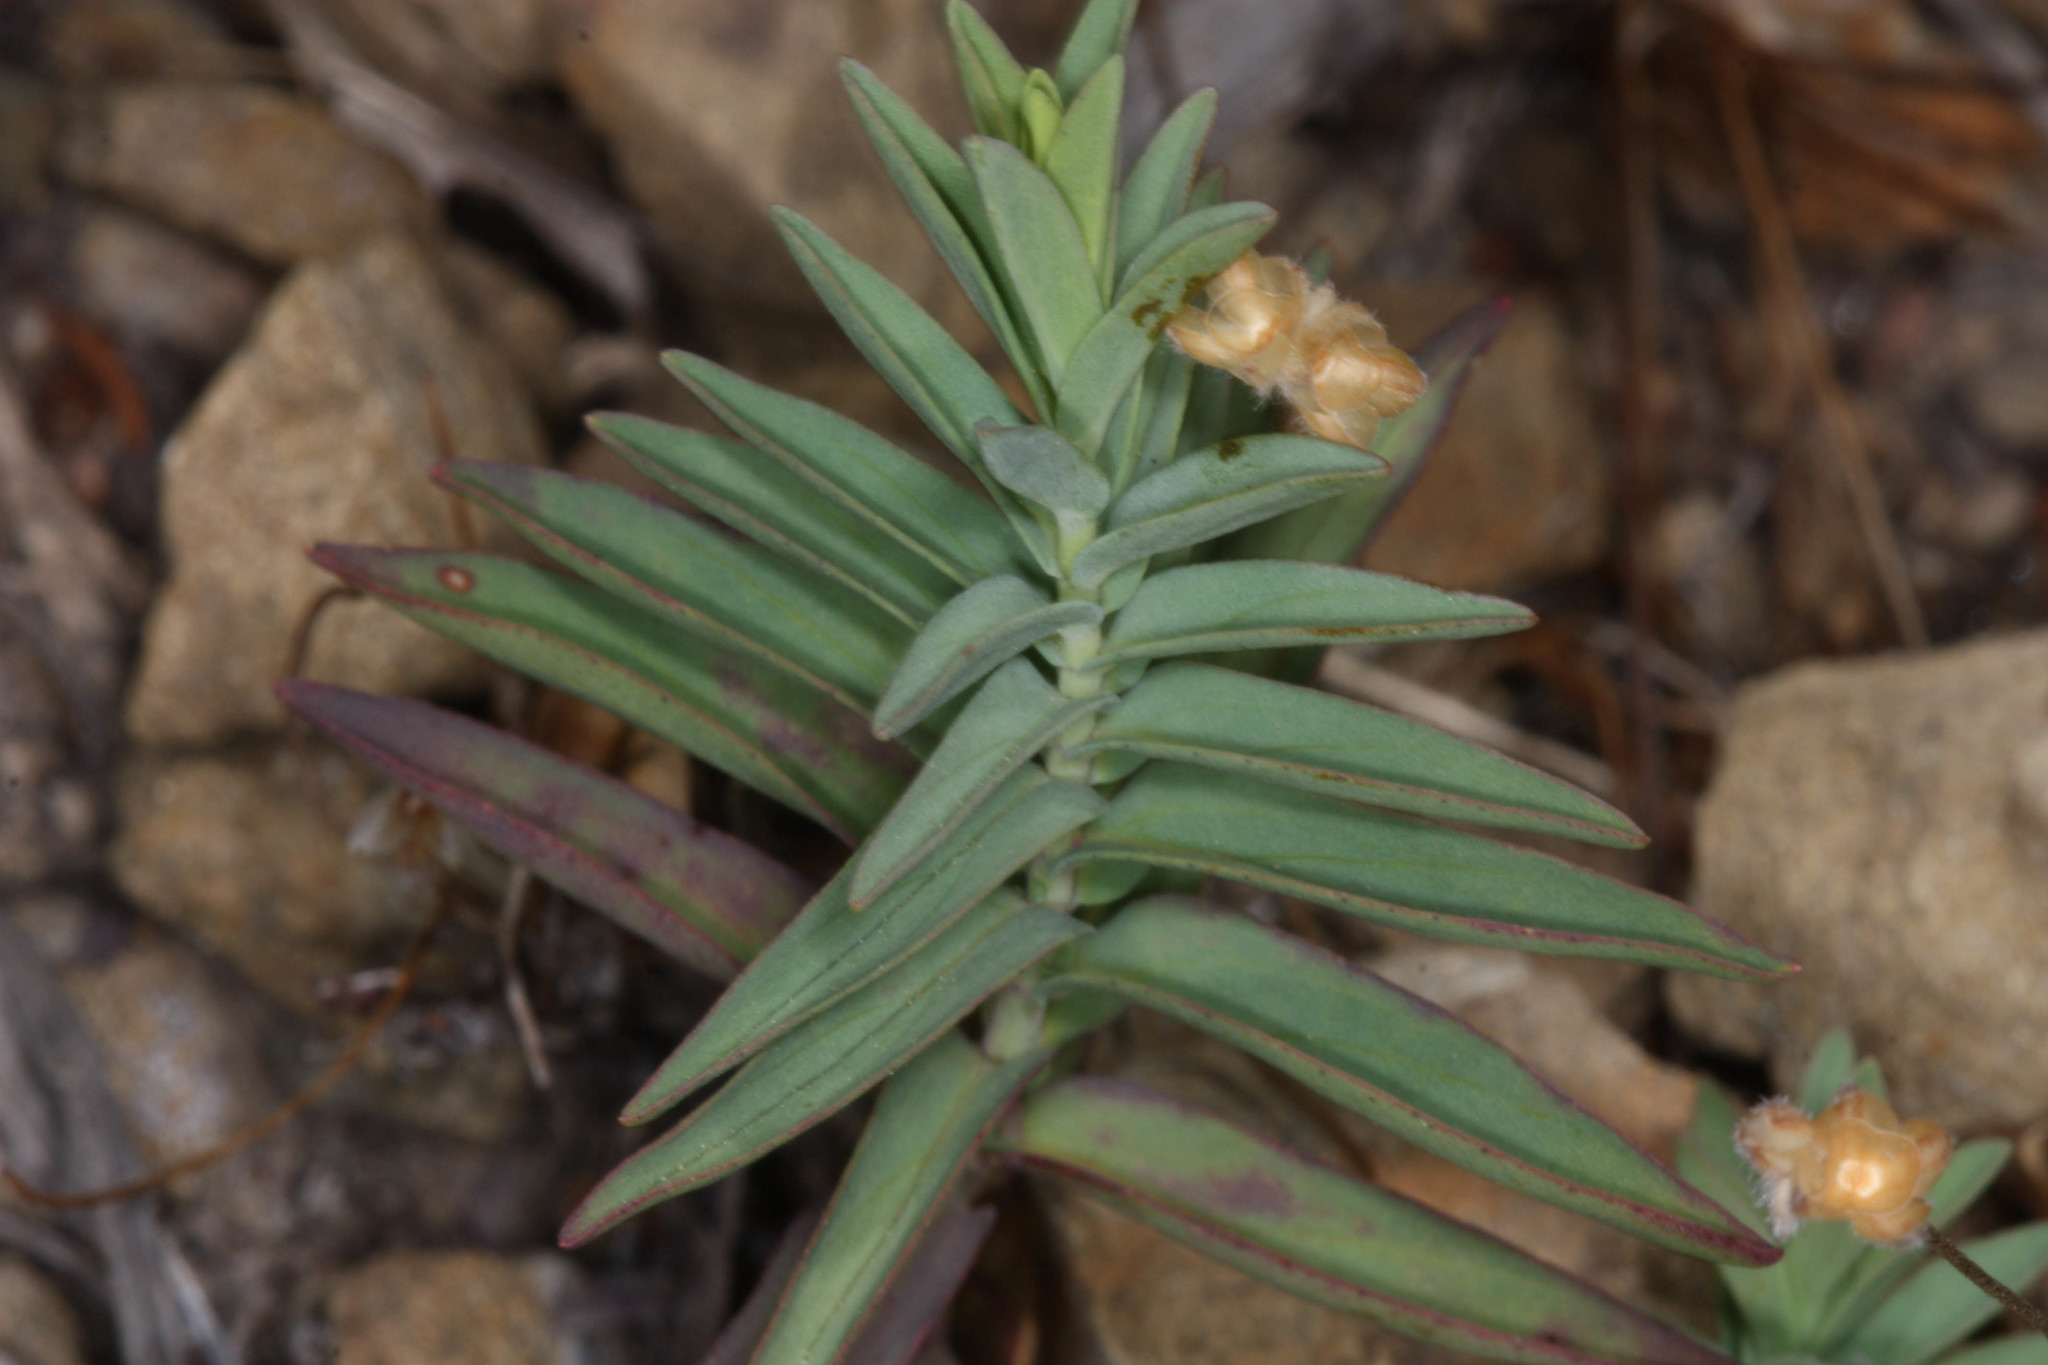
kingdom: Plantae
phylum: Tracheophyta
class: Magnoliopsida
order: Malpighiales
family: Hypericaceae
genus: Hypericum
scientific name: Hypericum concinnum
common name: Gold-wire
